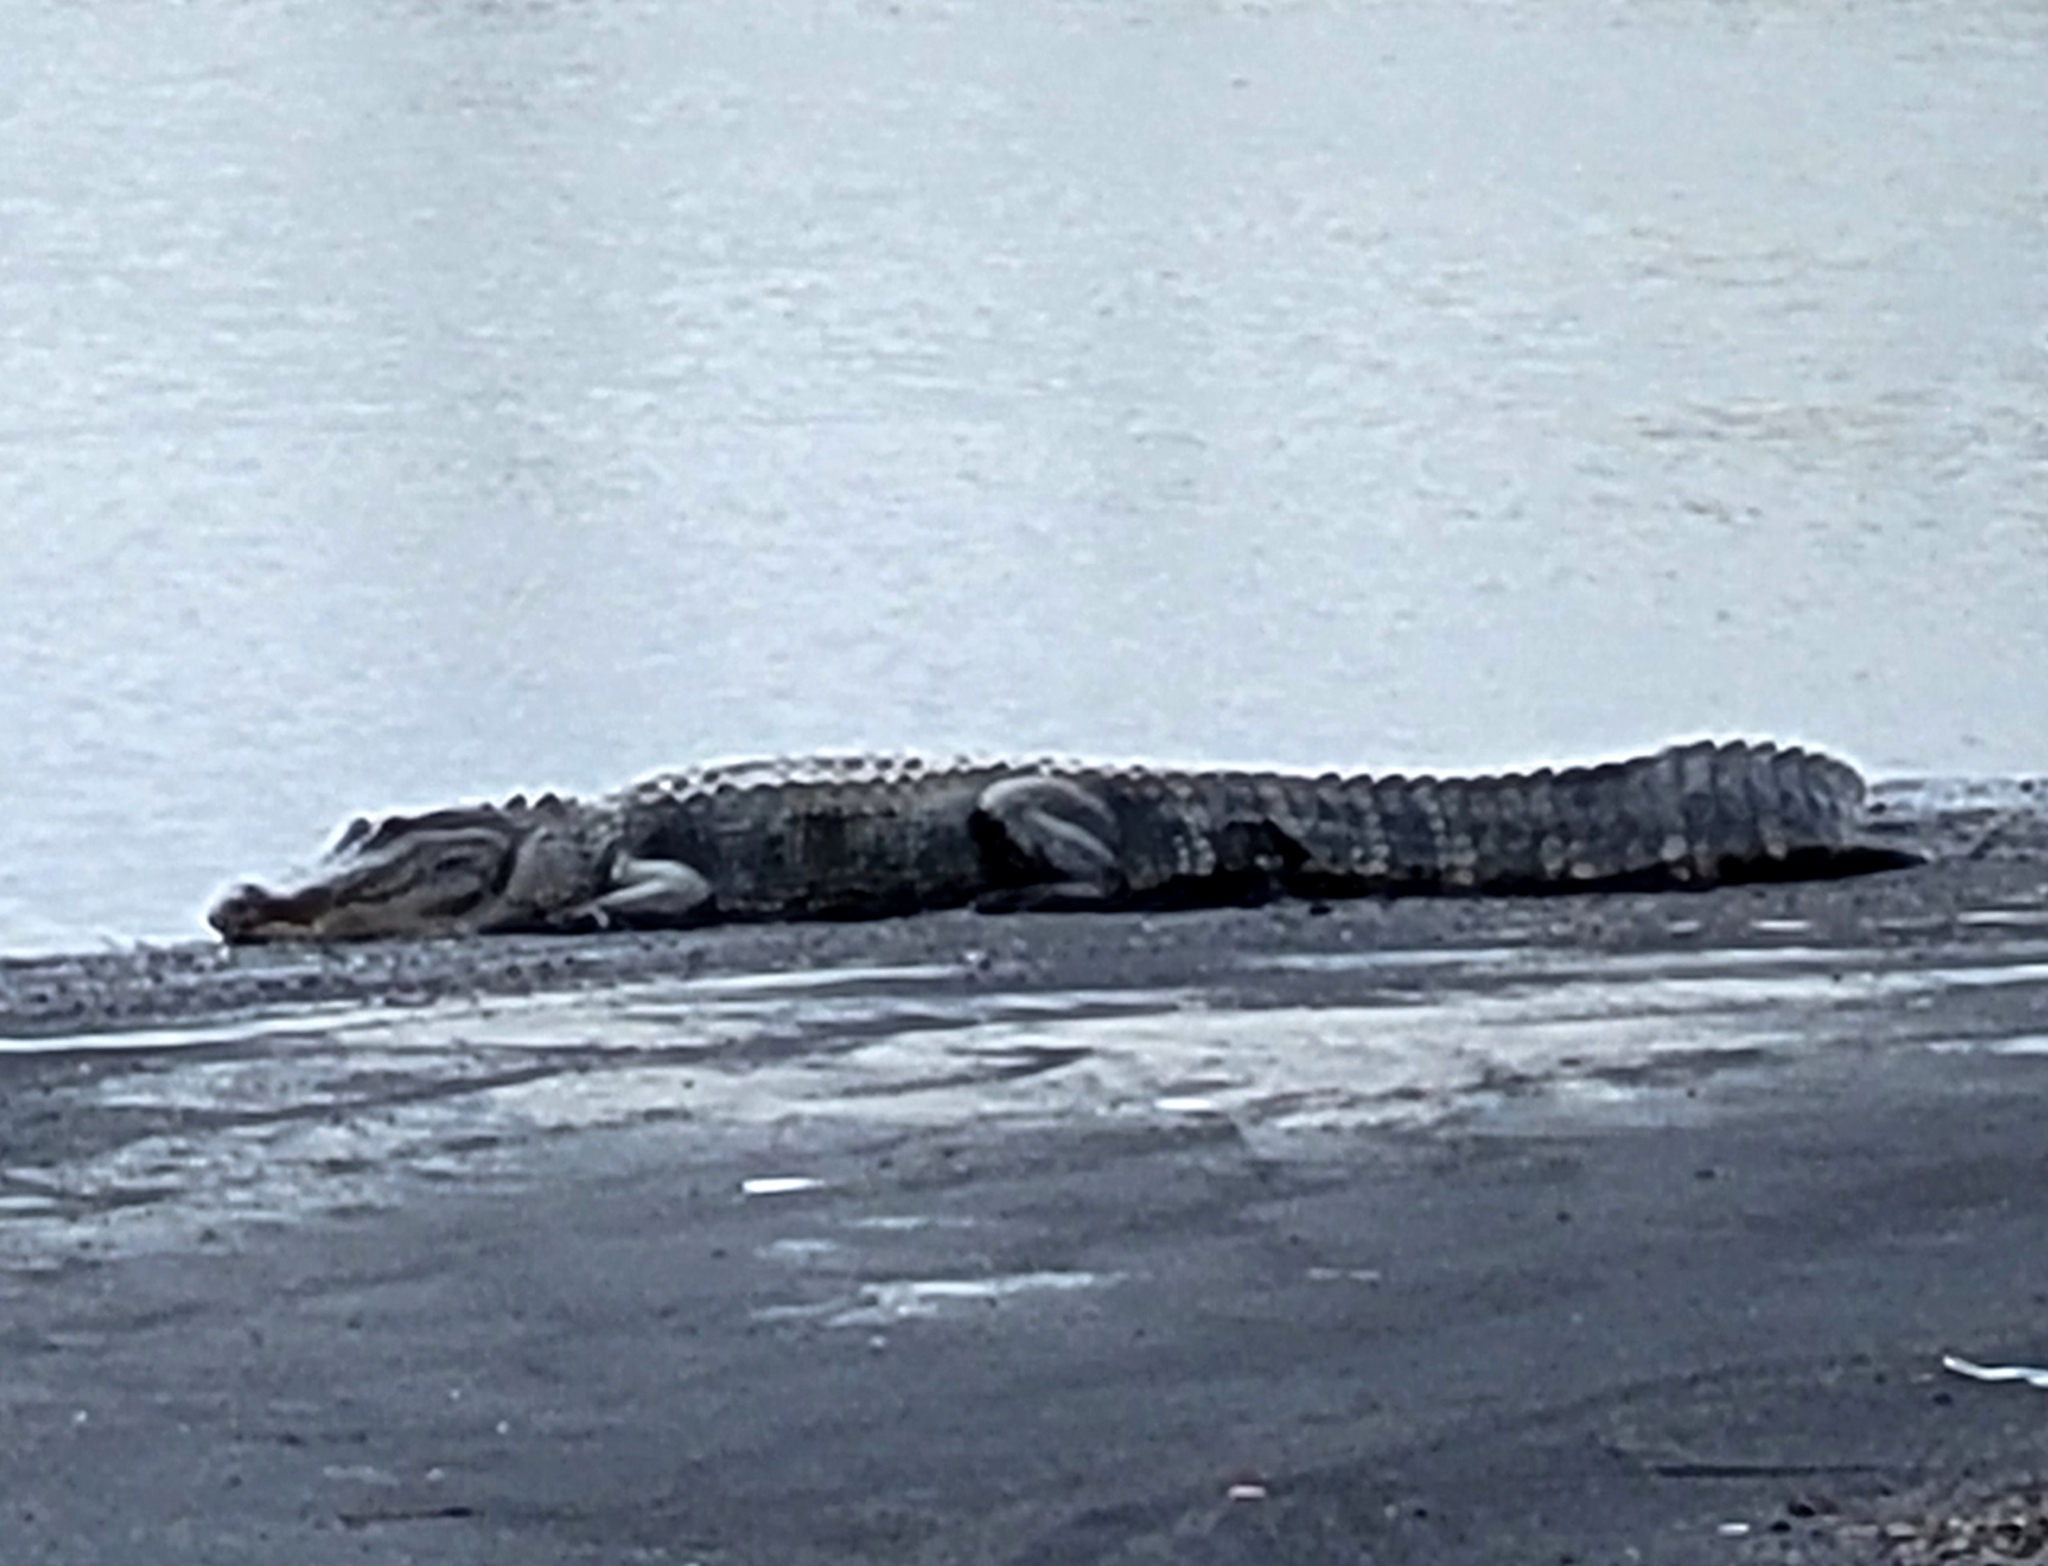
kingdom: Animalia
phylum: Chordata
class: Crocodylia
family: Alligatoridae
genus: Alligator
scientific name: Alligator mississippiensis
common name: American alligator
